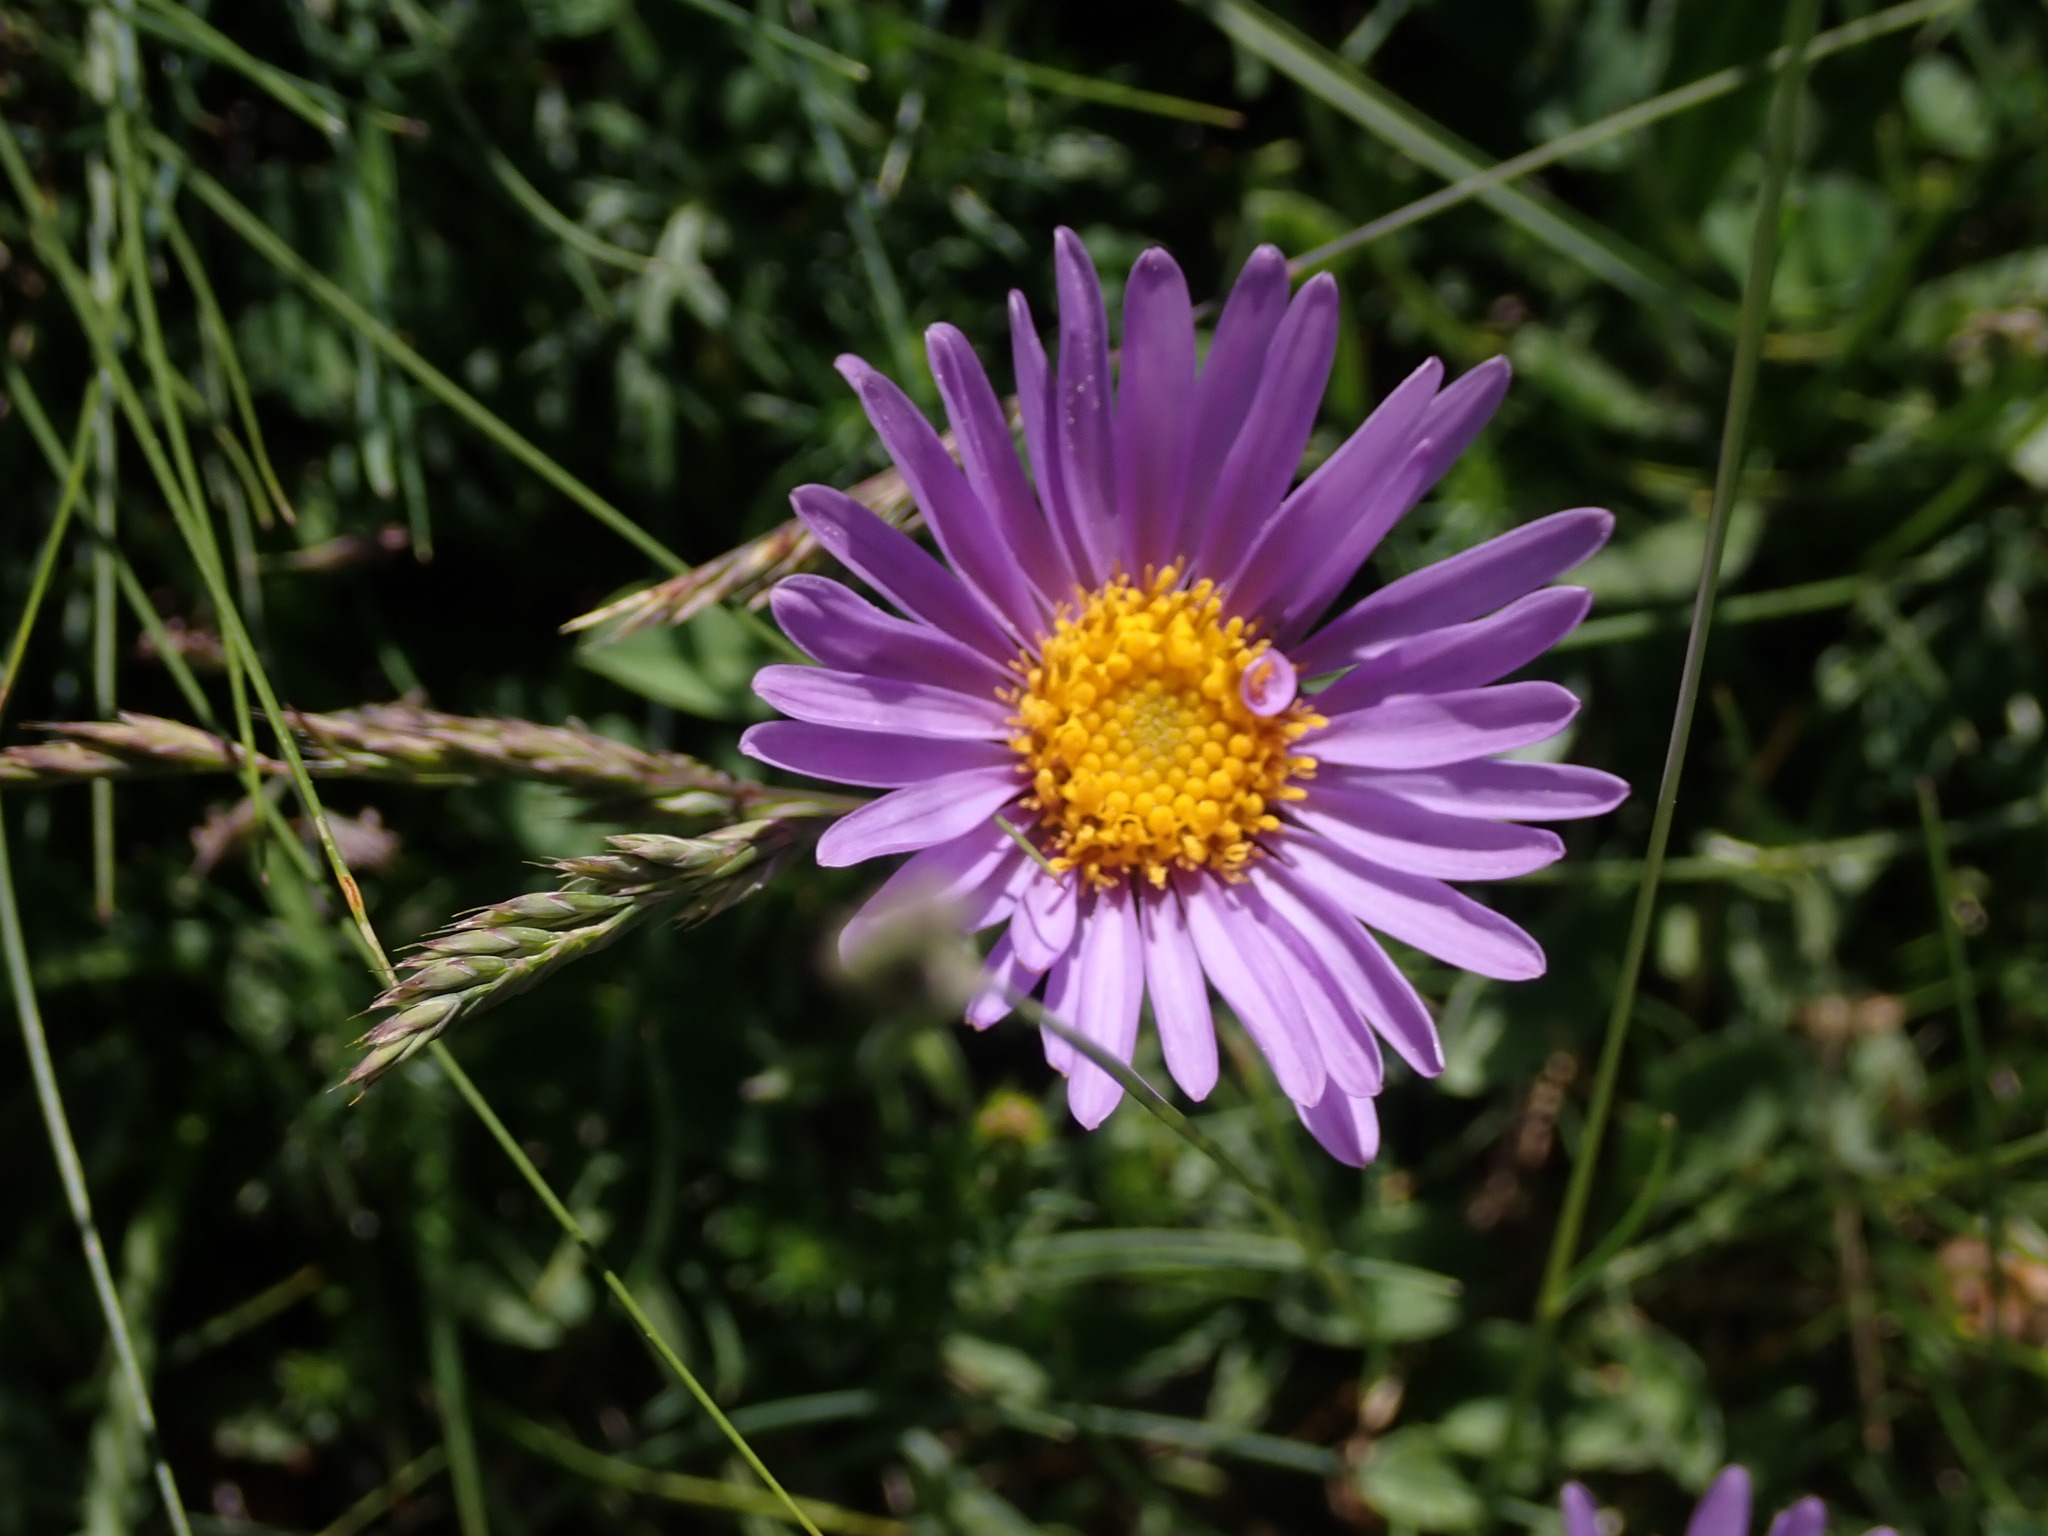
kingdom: Plantae
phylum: Tracheophyta
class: Magnoliopsida
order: Asterales
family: Asteraceae
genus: Aster
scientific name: Aster alpinus
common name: Alpine aster
